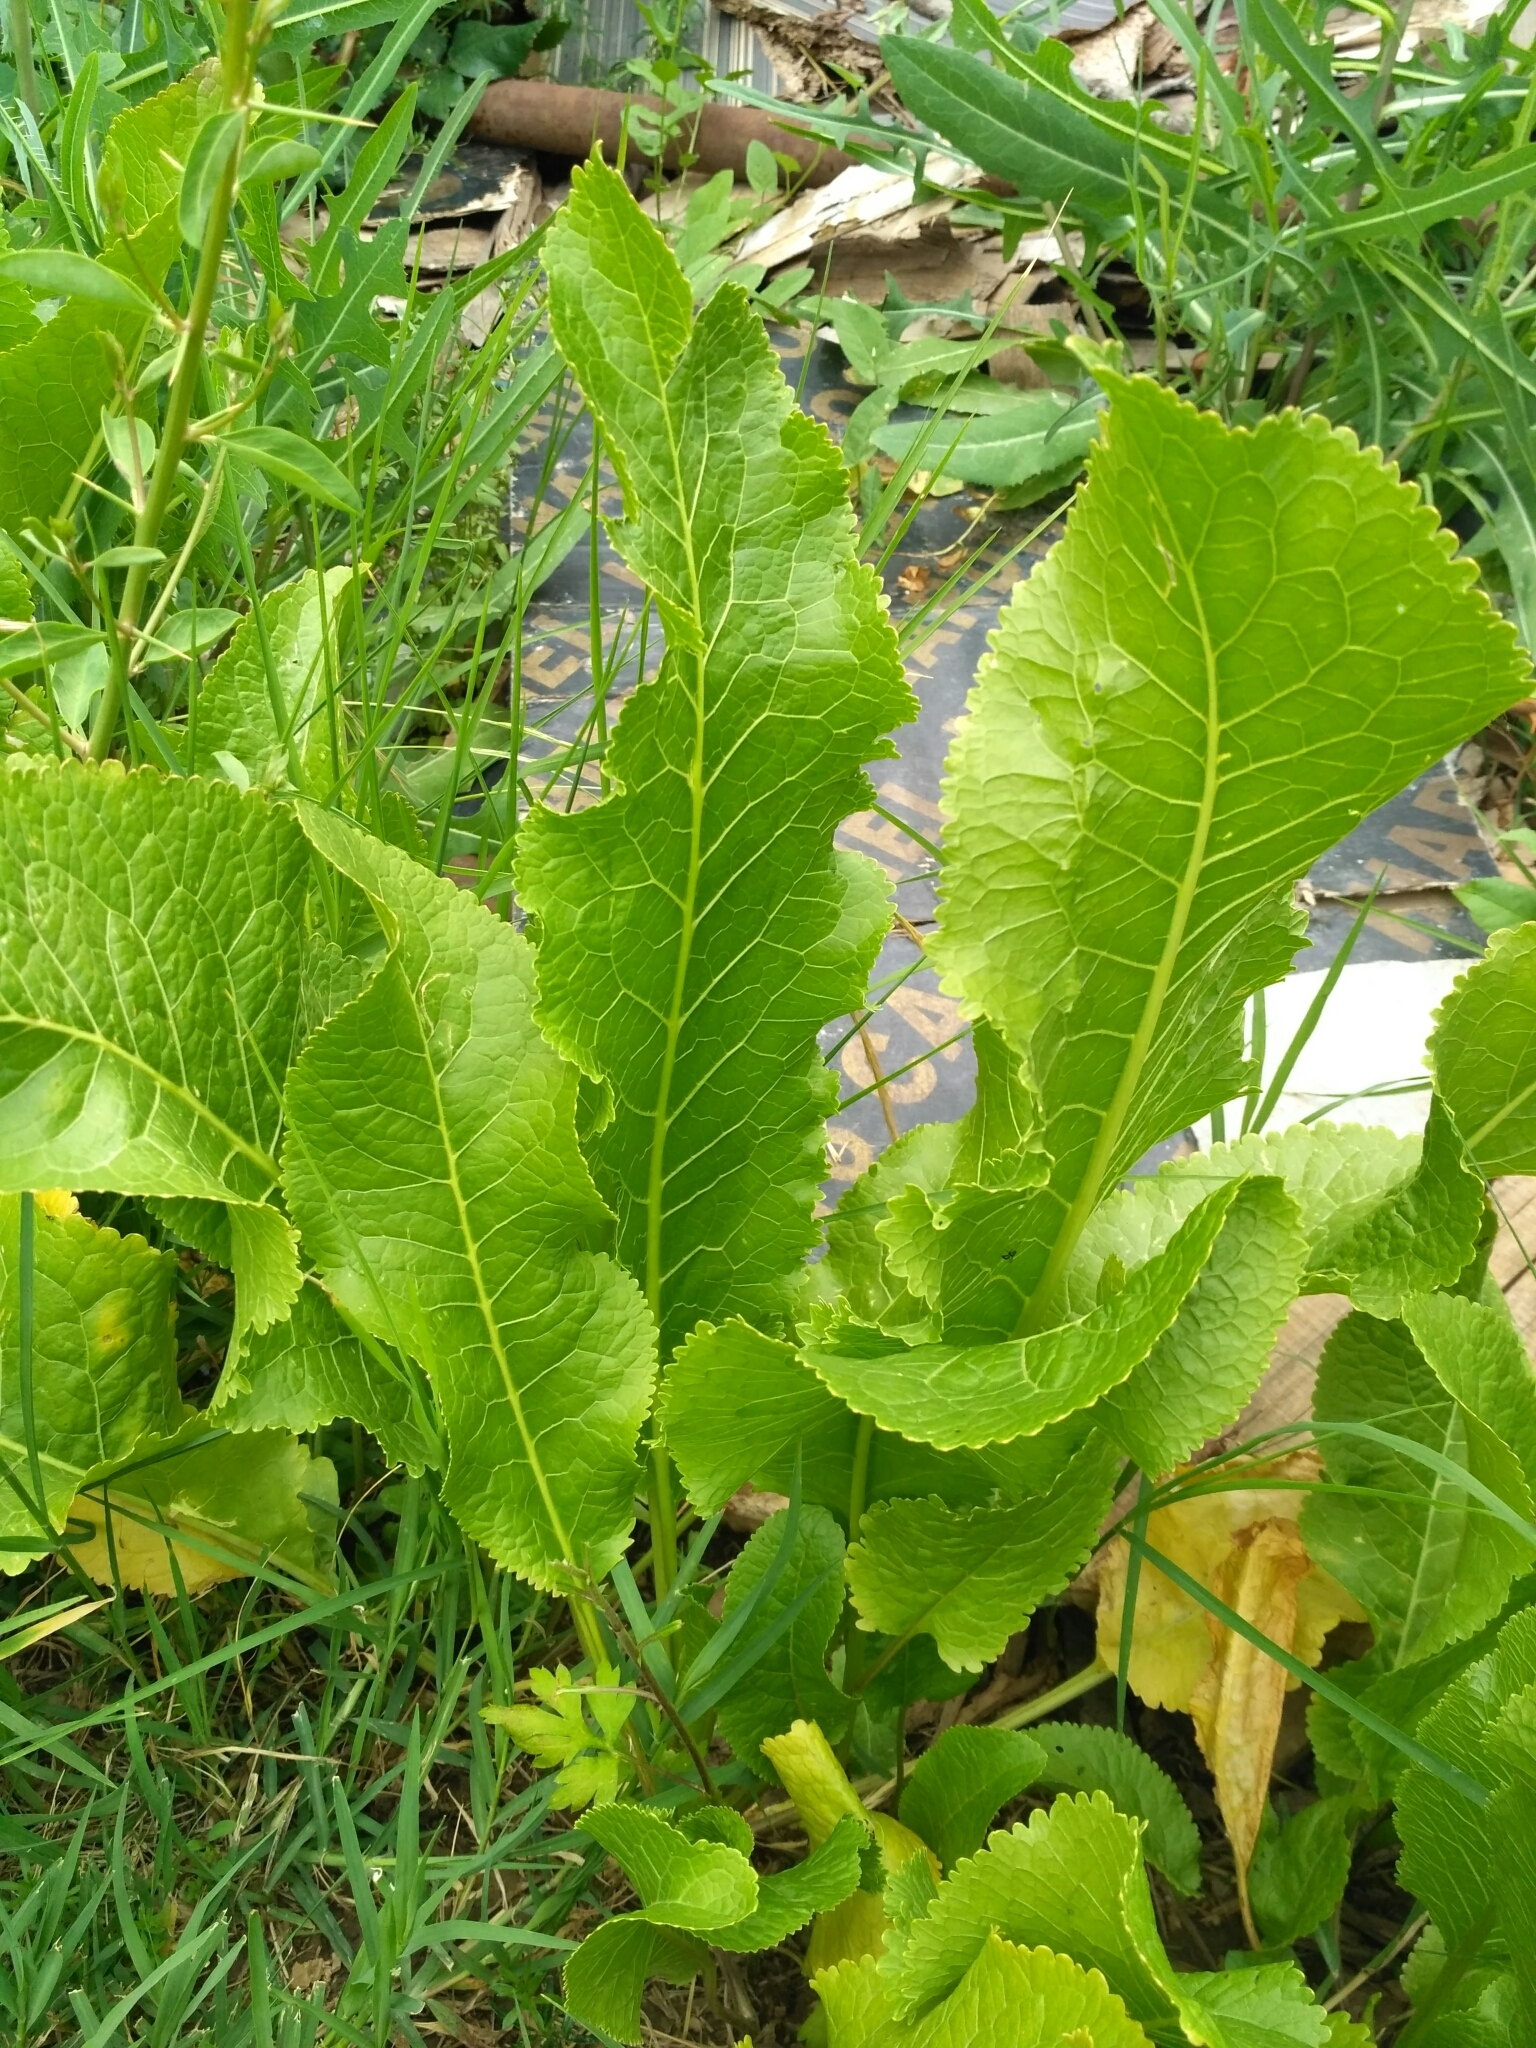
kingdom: Plantae
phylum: Tracheophyta
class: Magnoliopsida
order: Brassicales
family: Brassicaceae
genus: Armoracia
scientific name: Armoracia rusticana
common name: Horseradish
